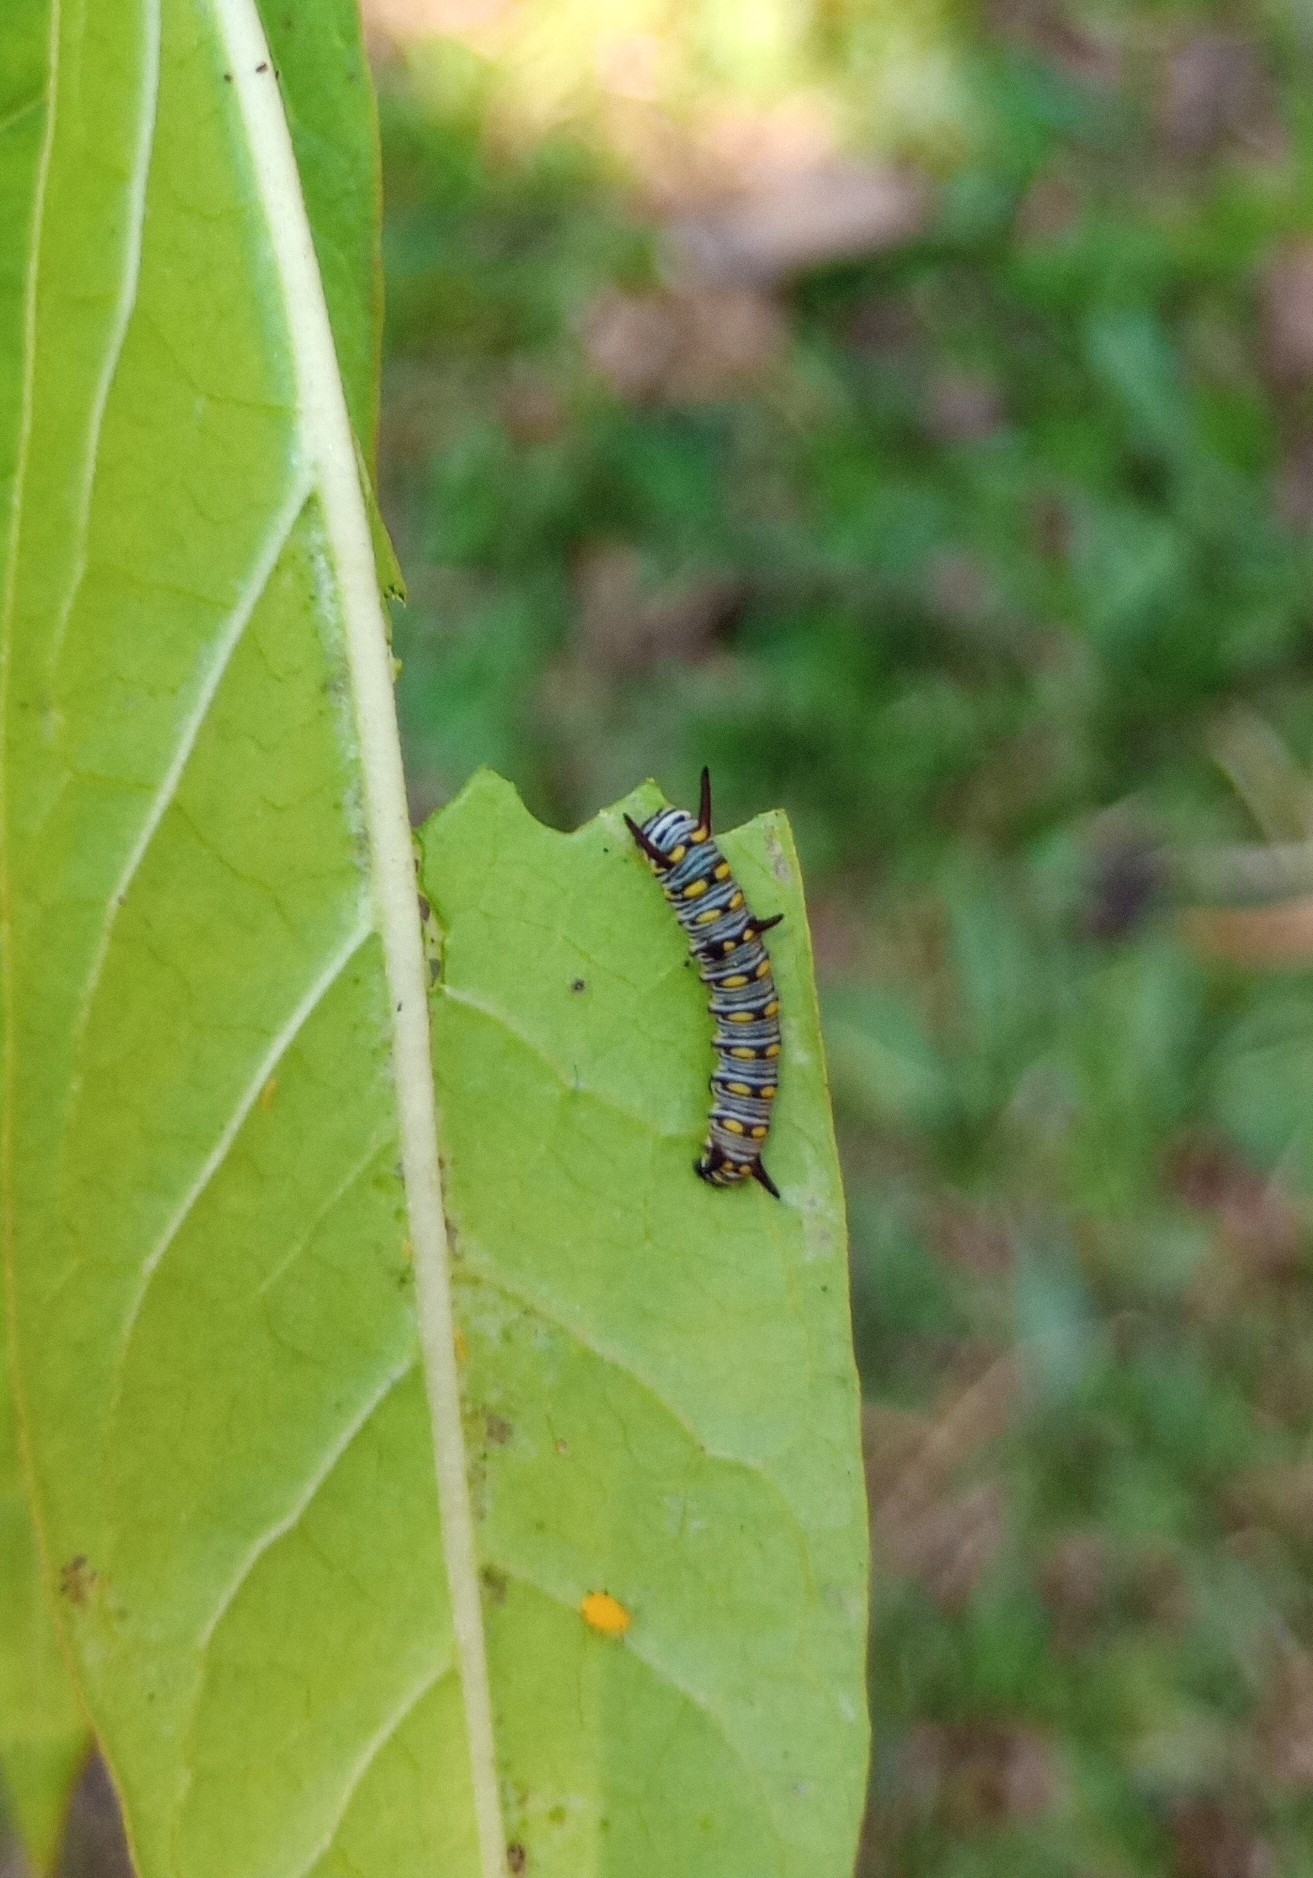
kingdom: Animalia
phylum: Arthropoda
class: Insecta
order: Lepidoptera
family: Nymphalidae
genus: Danaus
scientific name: Danaus chrysippus
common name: Plain tiger
